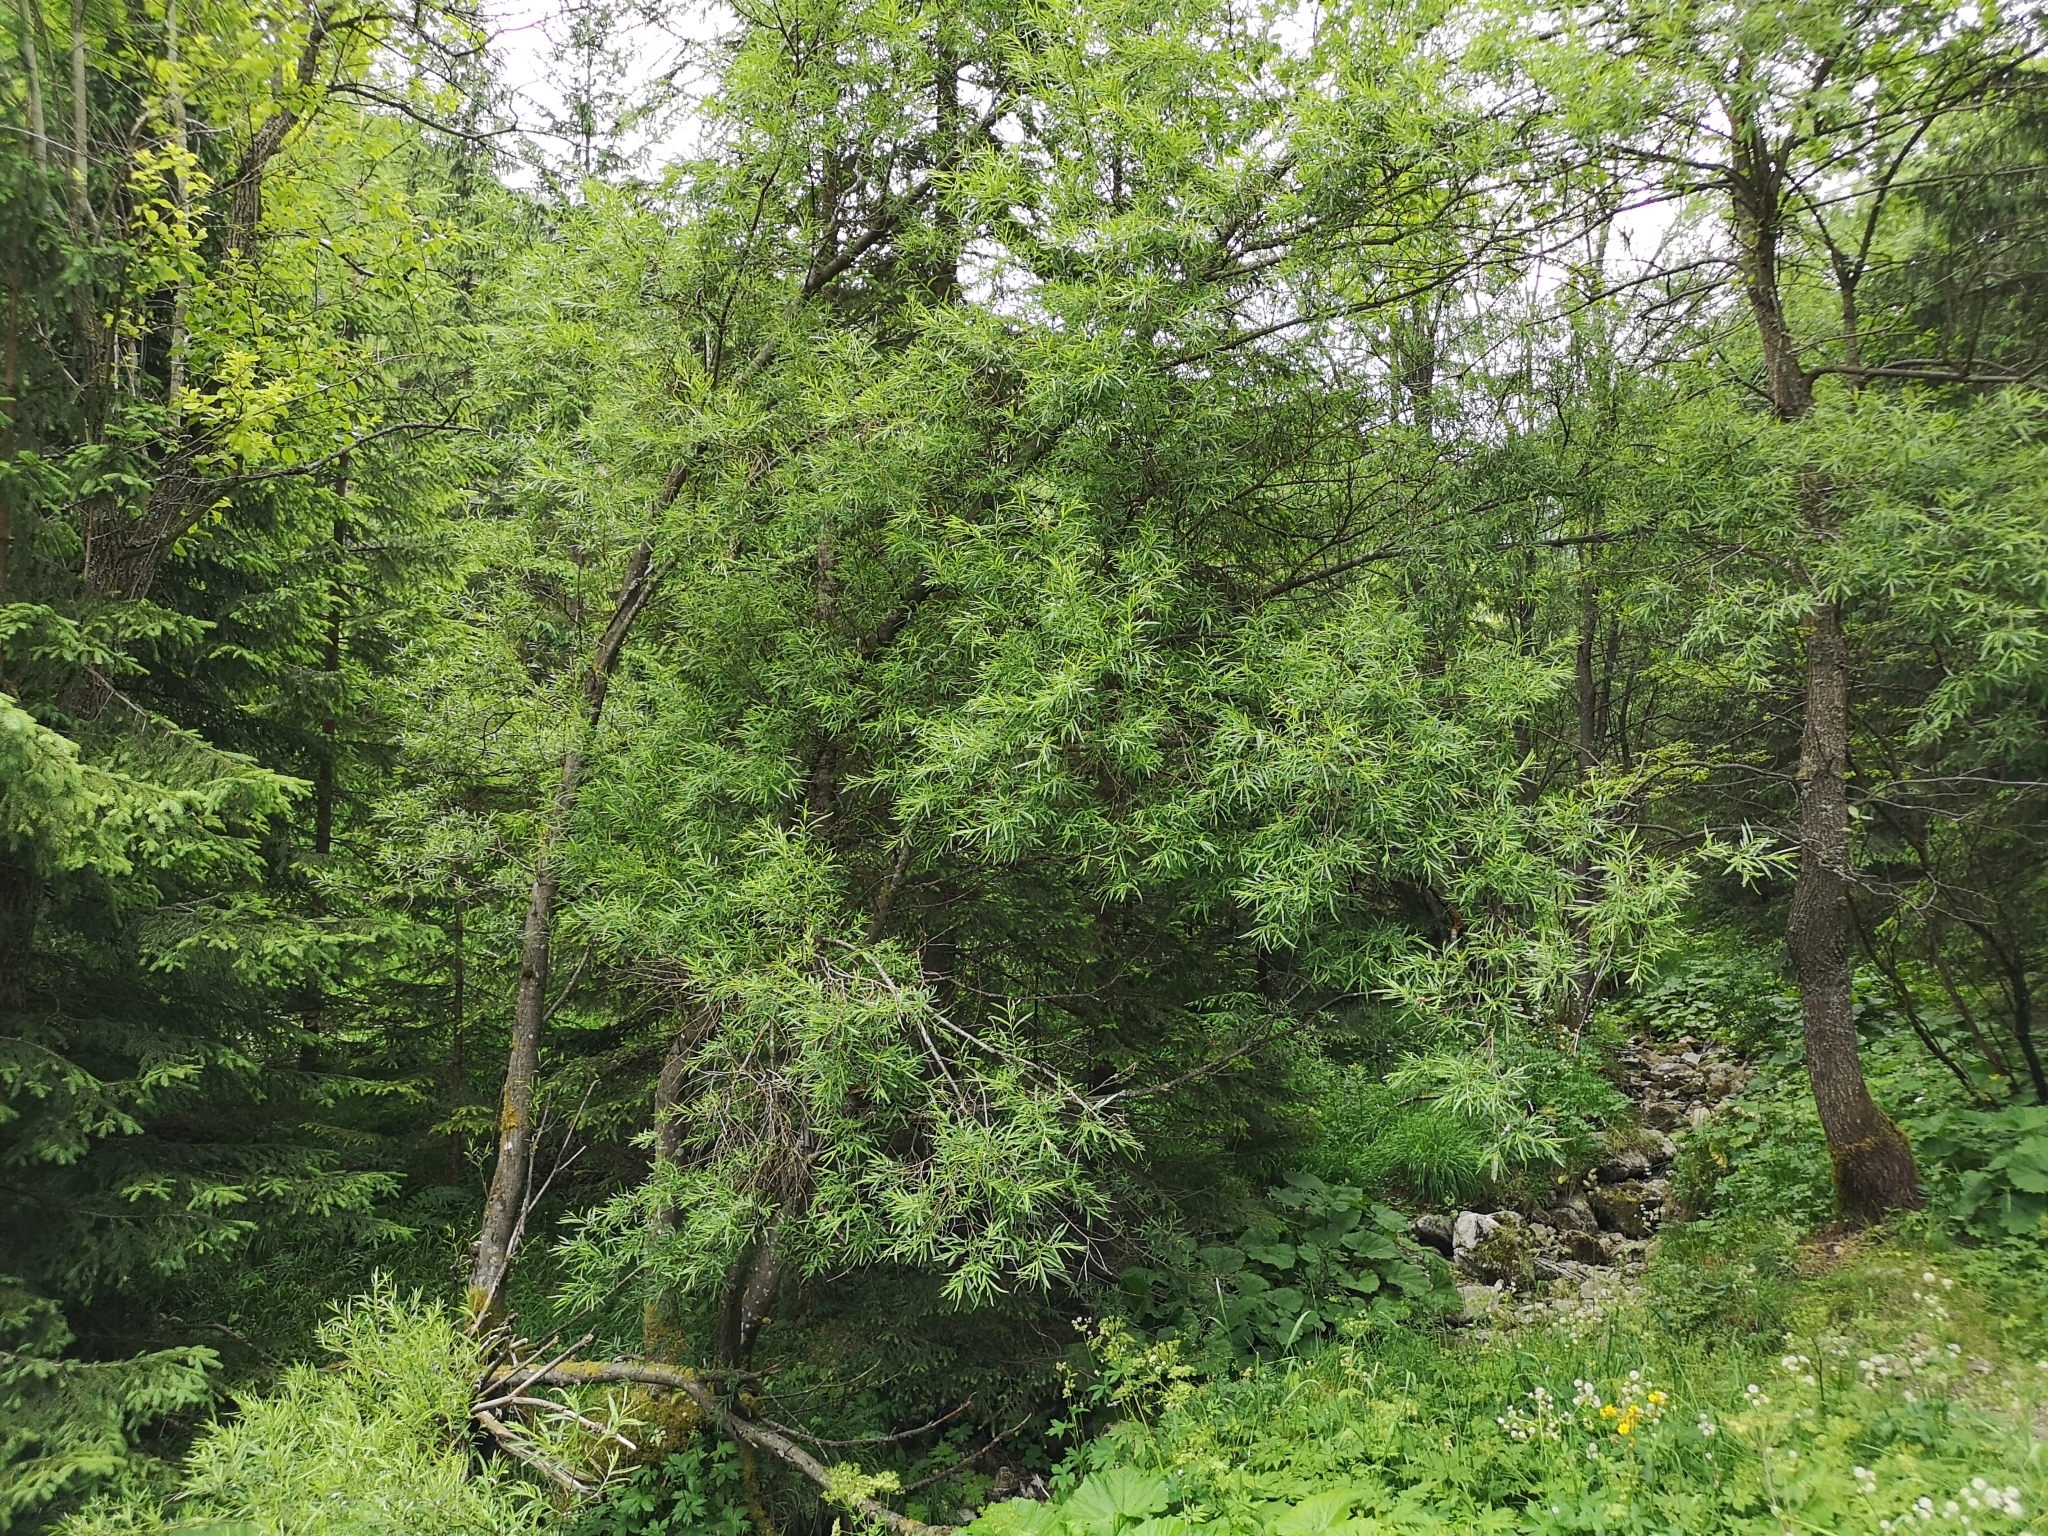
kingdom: Plantae
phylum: Tracheophyta
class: Magnoliopsida
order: Malpighiales
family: Salicaceae
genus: Salix
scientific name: Salix viminalis
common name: Osier
